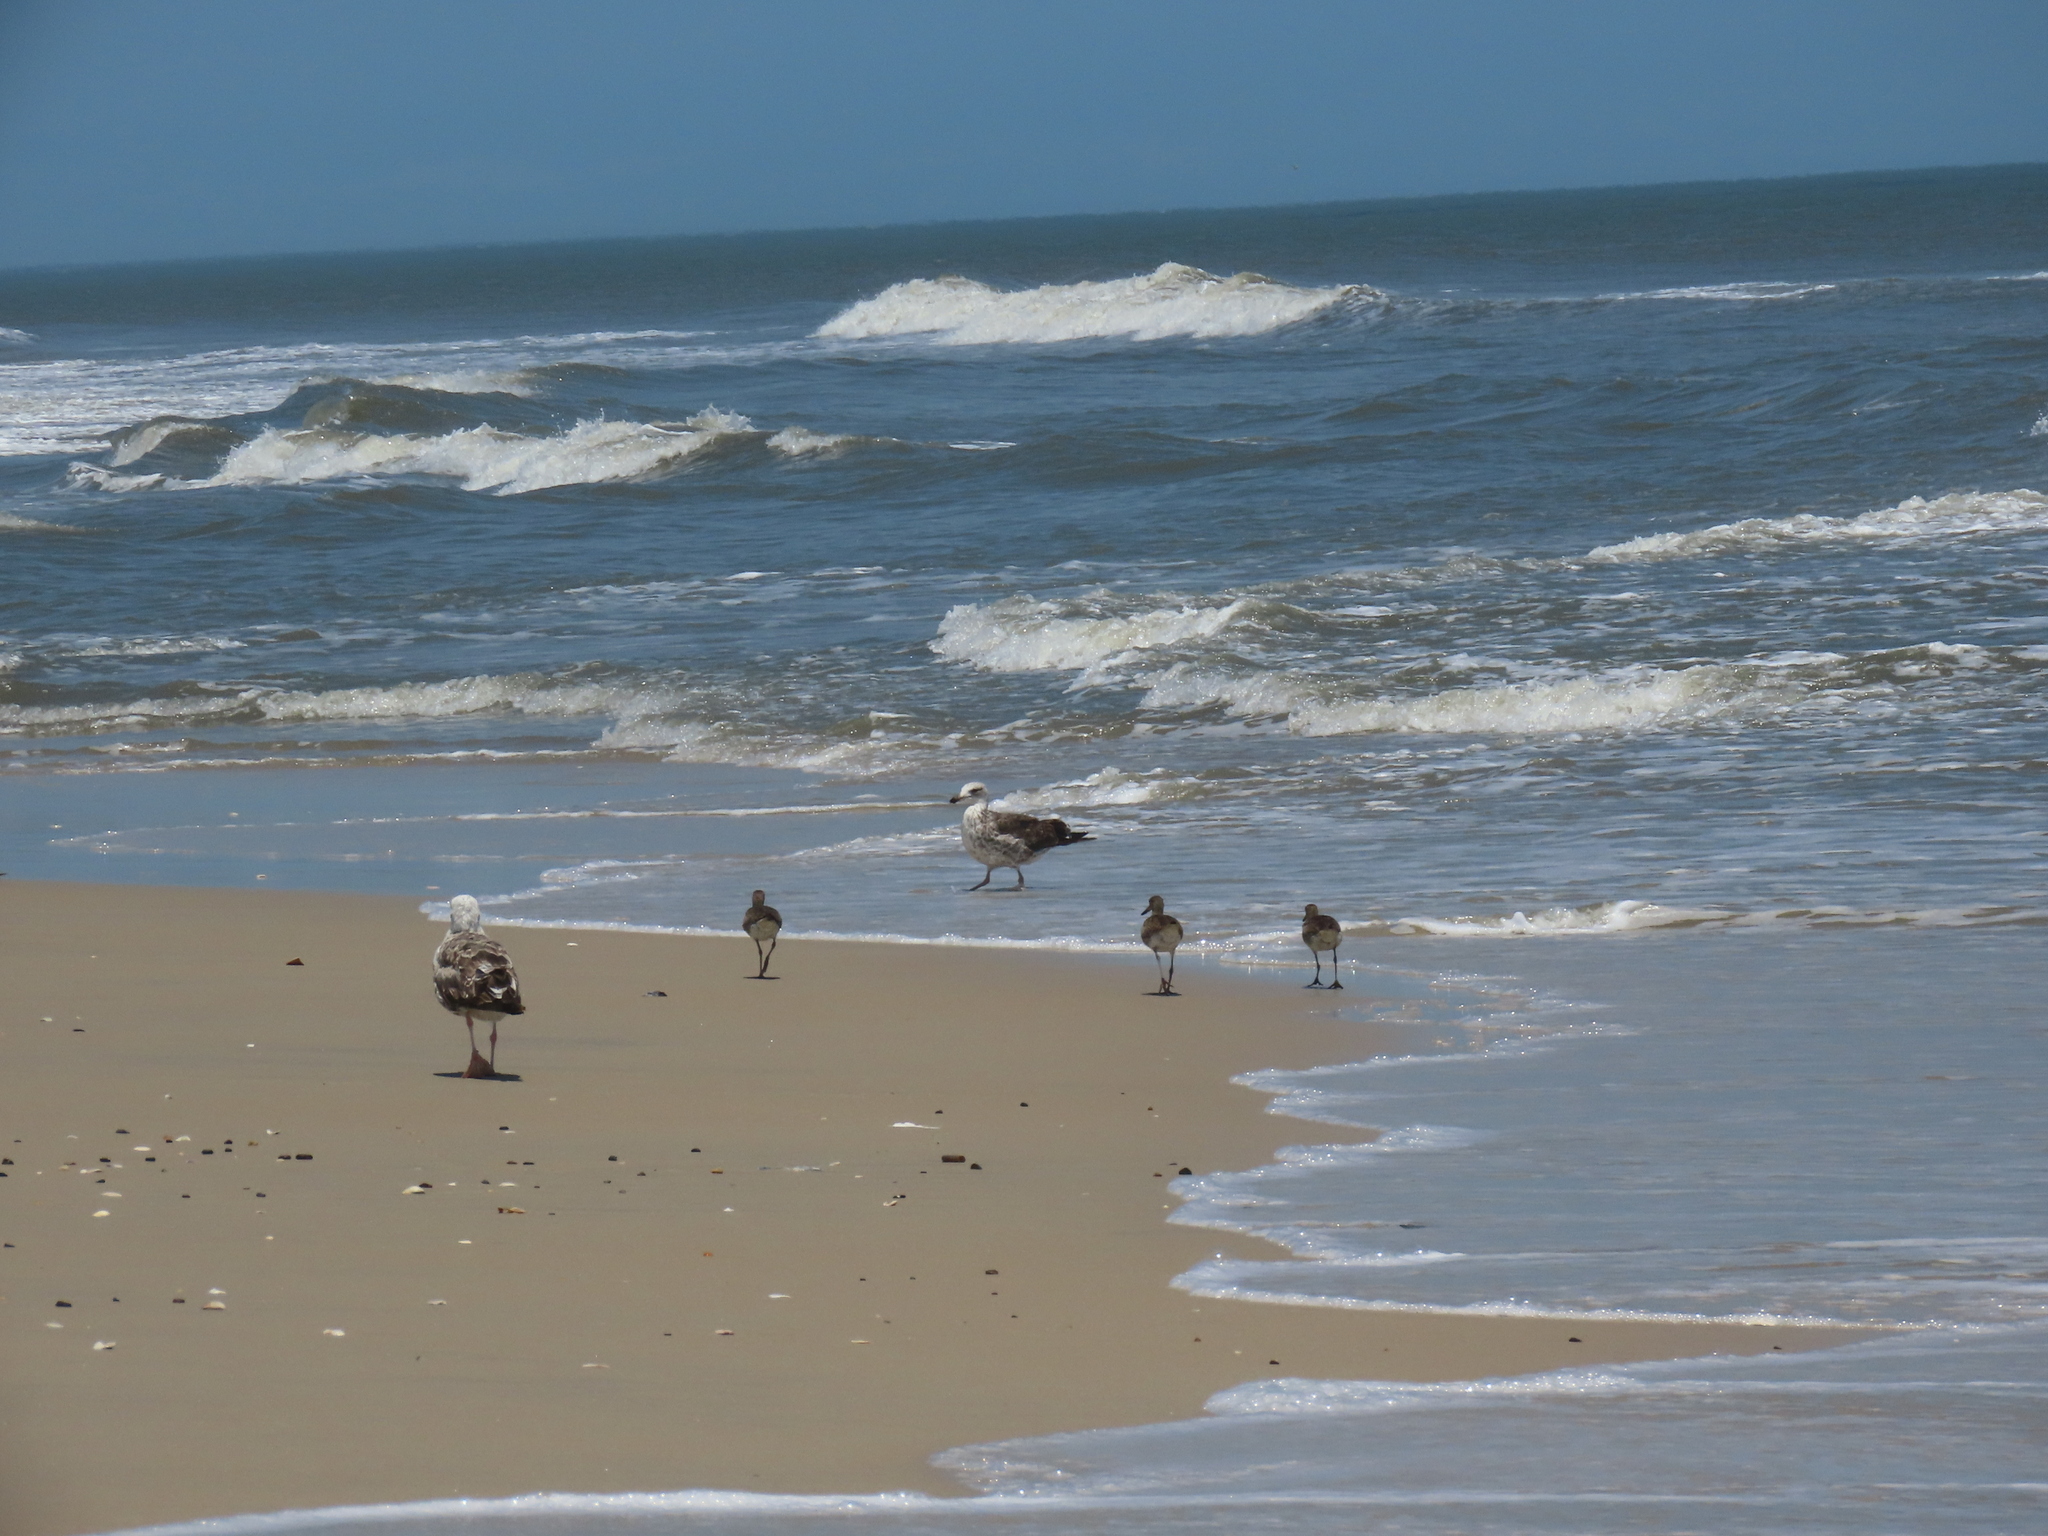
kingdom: Animalia
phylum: Chordata
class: Aves
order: Charadriiformes
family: Scolopacidae
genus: Tringa
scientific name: Tringa semipalmata
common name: Willet
